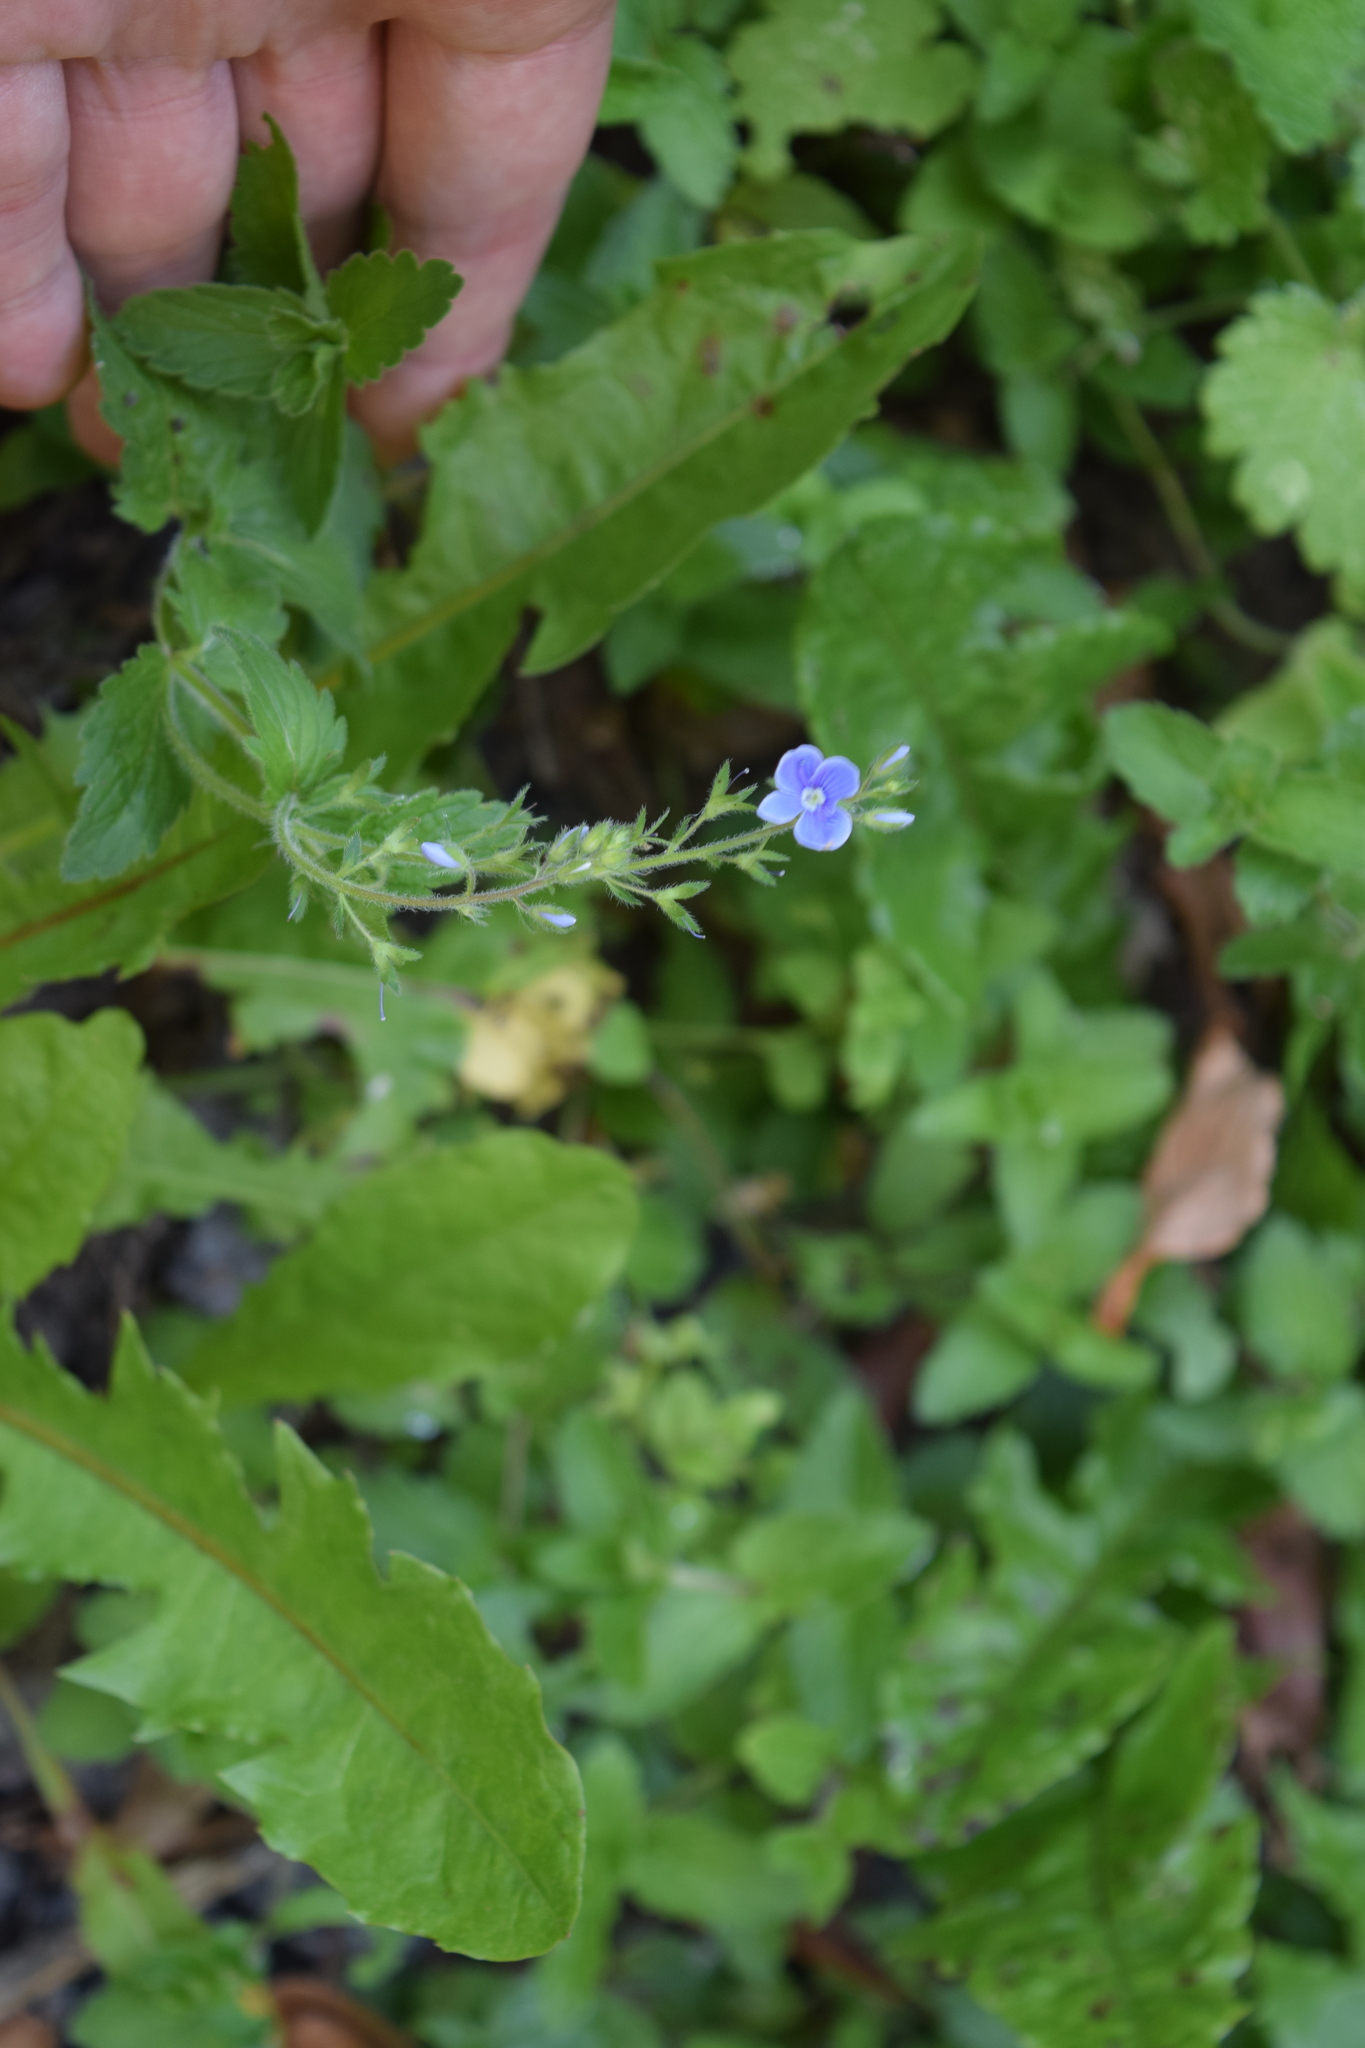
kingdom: Plantae
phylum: Tracheophyta
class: Magnoliopsida
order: Lamiales
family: Plantaginaceae
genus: Veronica
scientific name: Veronica chamaedrys
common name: Germander speedwell
